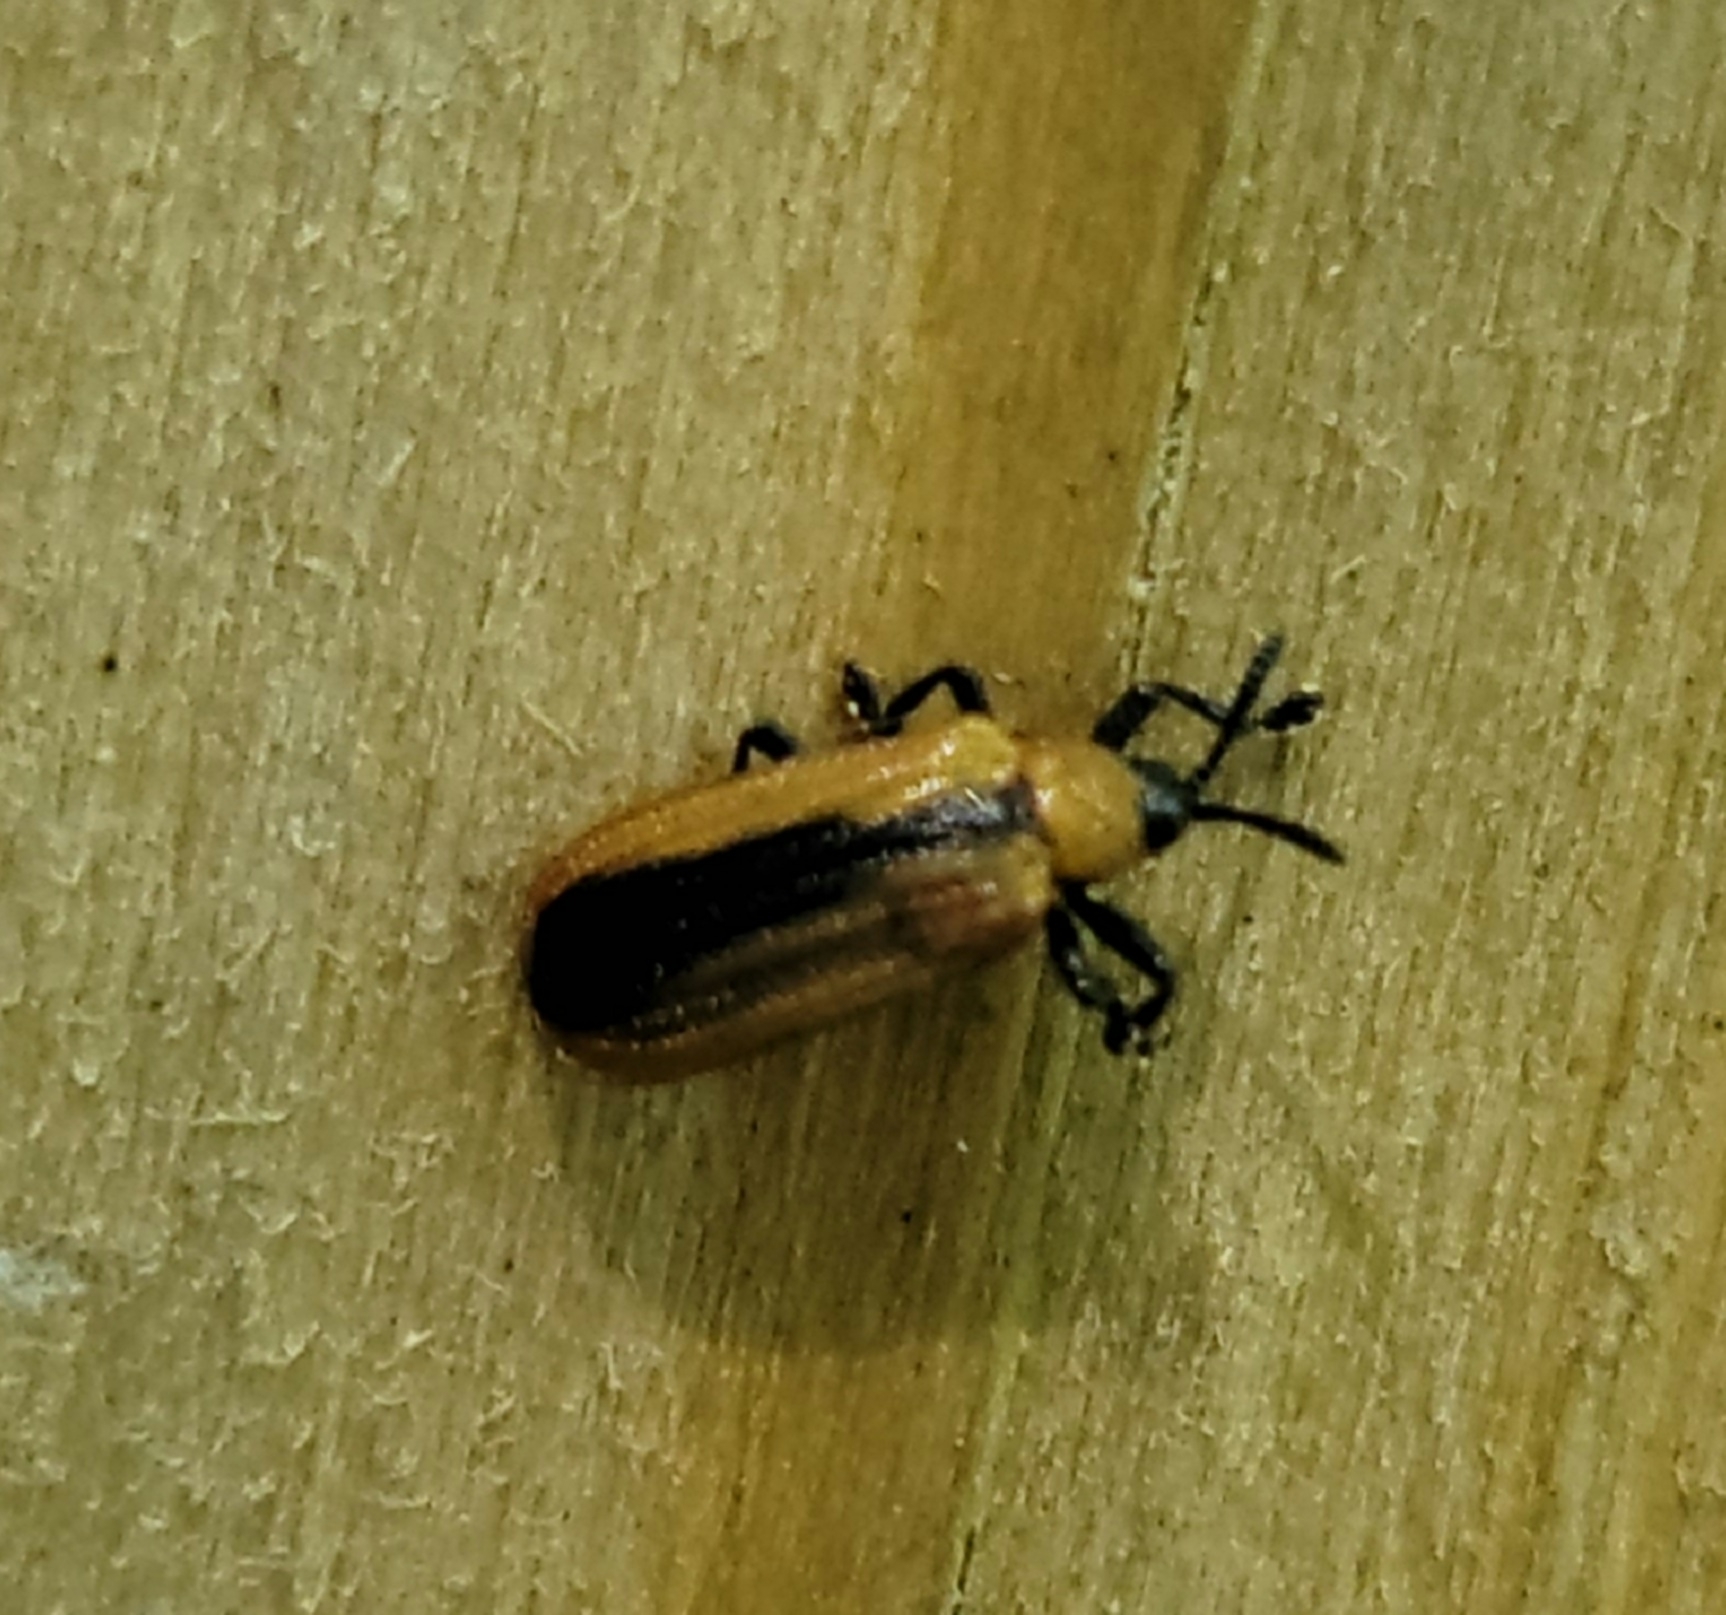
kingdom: Animalia
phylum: Arthropoda
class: Insecta
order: Coleoptera
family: Chrysomelidae
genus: Odontota
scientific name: Odontota dorsalis
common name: Locust leaf-miner beetle
